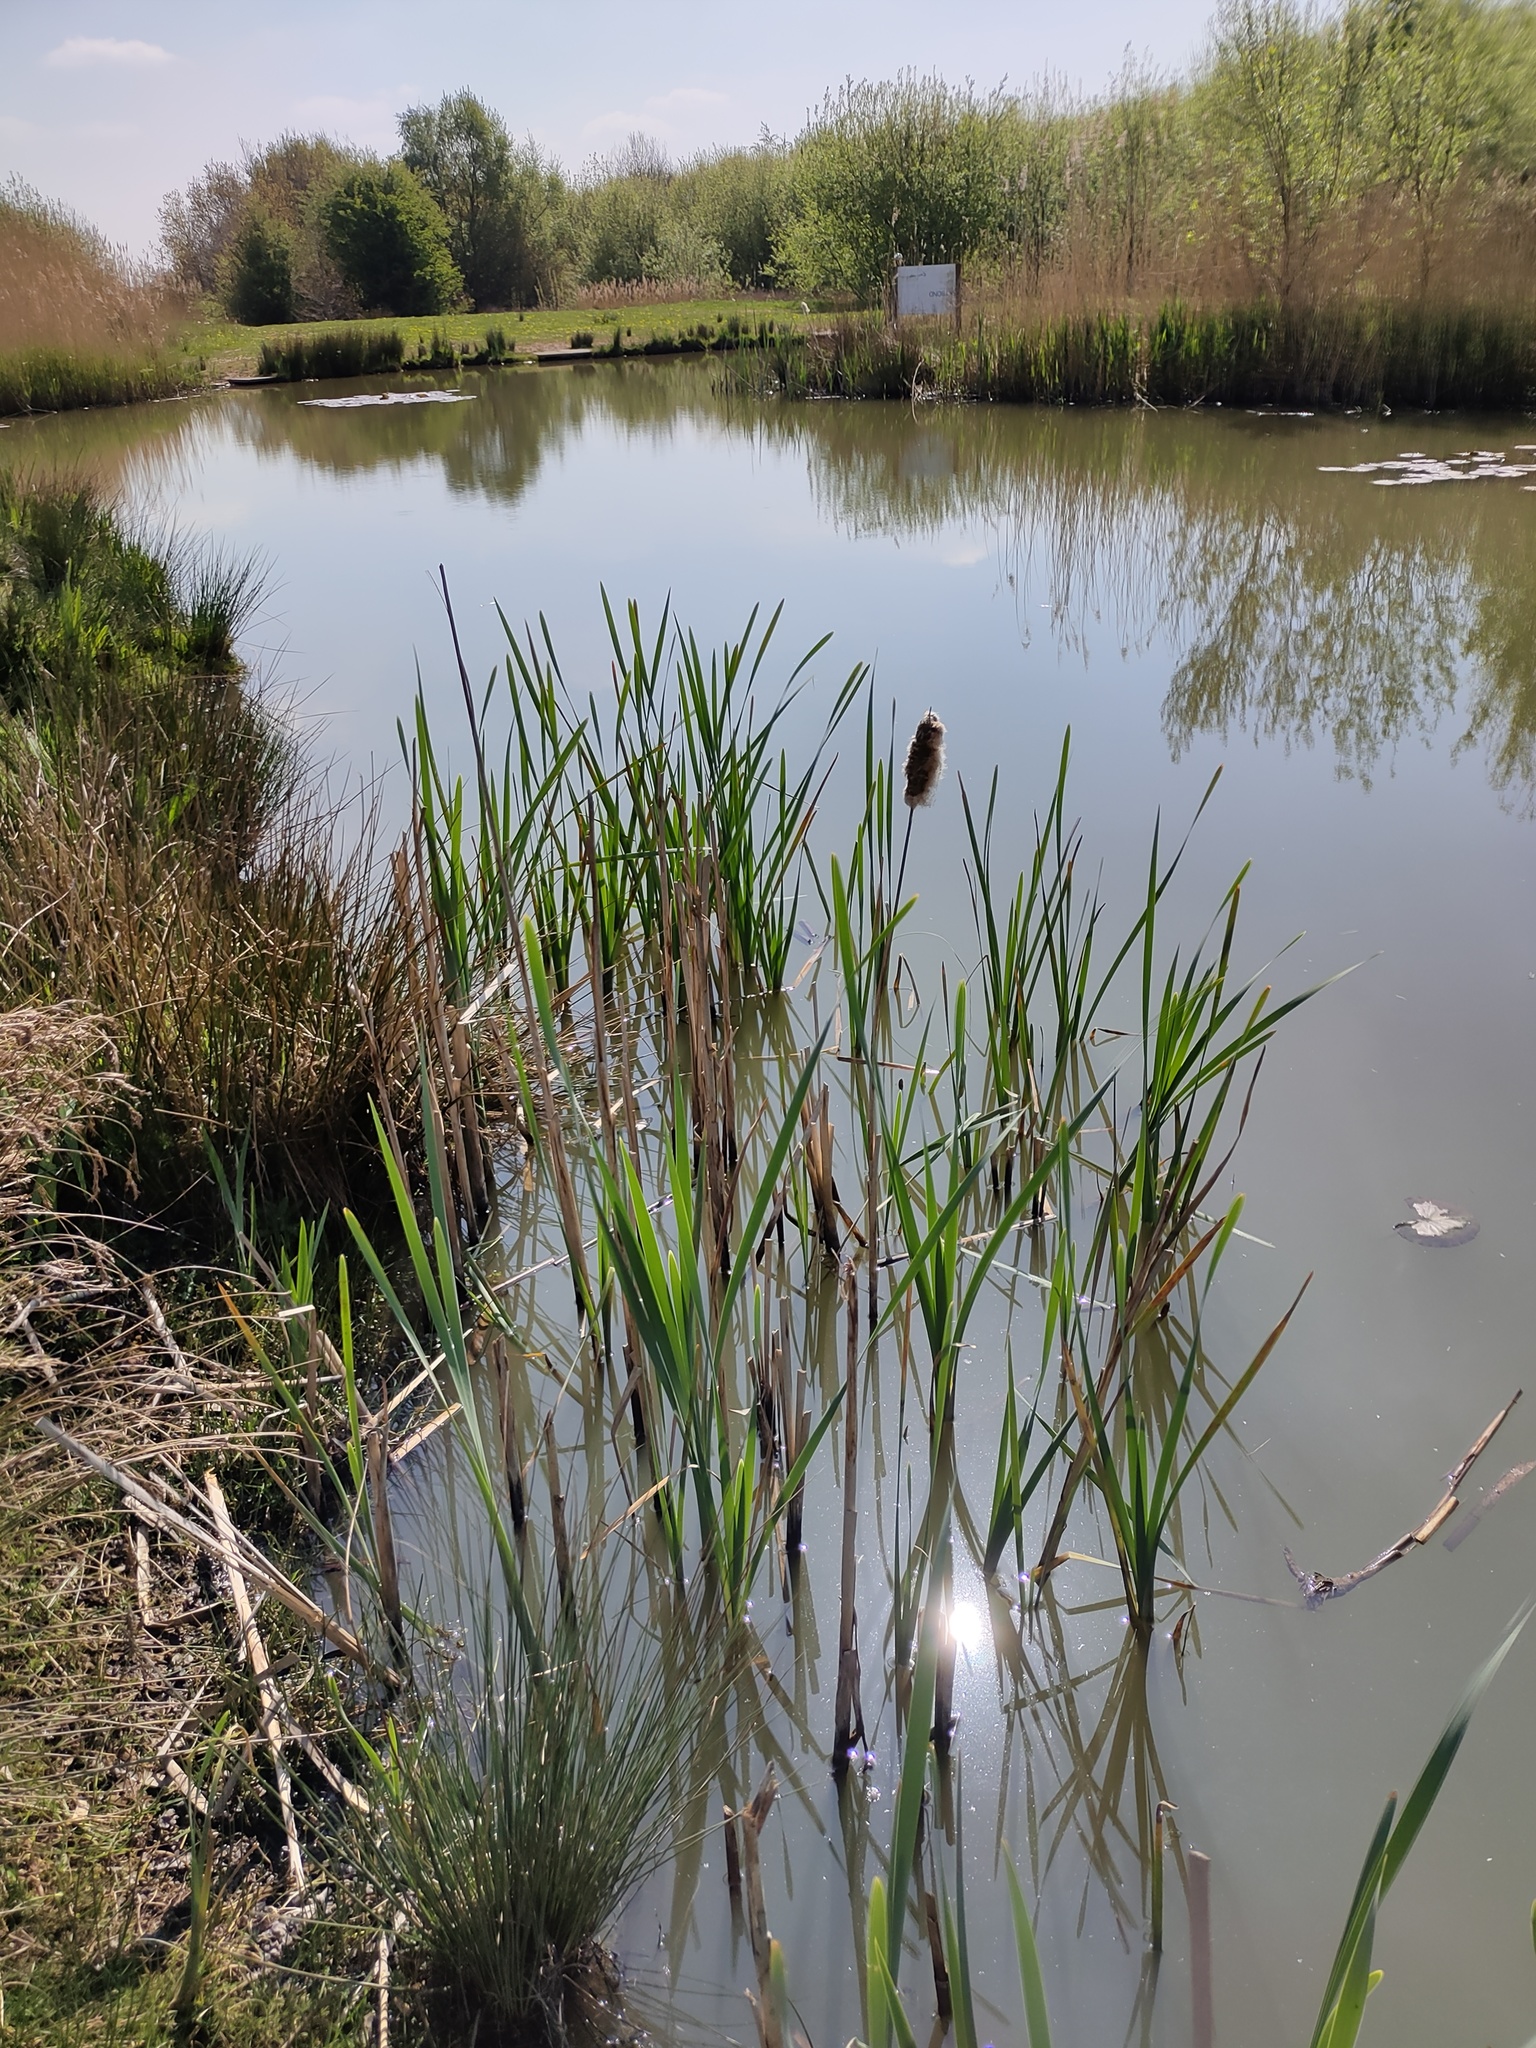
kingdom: Plantae
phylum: Tracheophyta
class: Liliopsida
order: Poales
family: Typhaceae
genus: Typha
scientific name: Typha latifolia
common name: Broadleaf cattail
